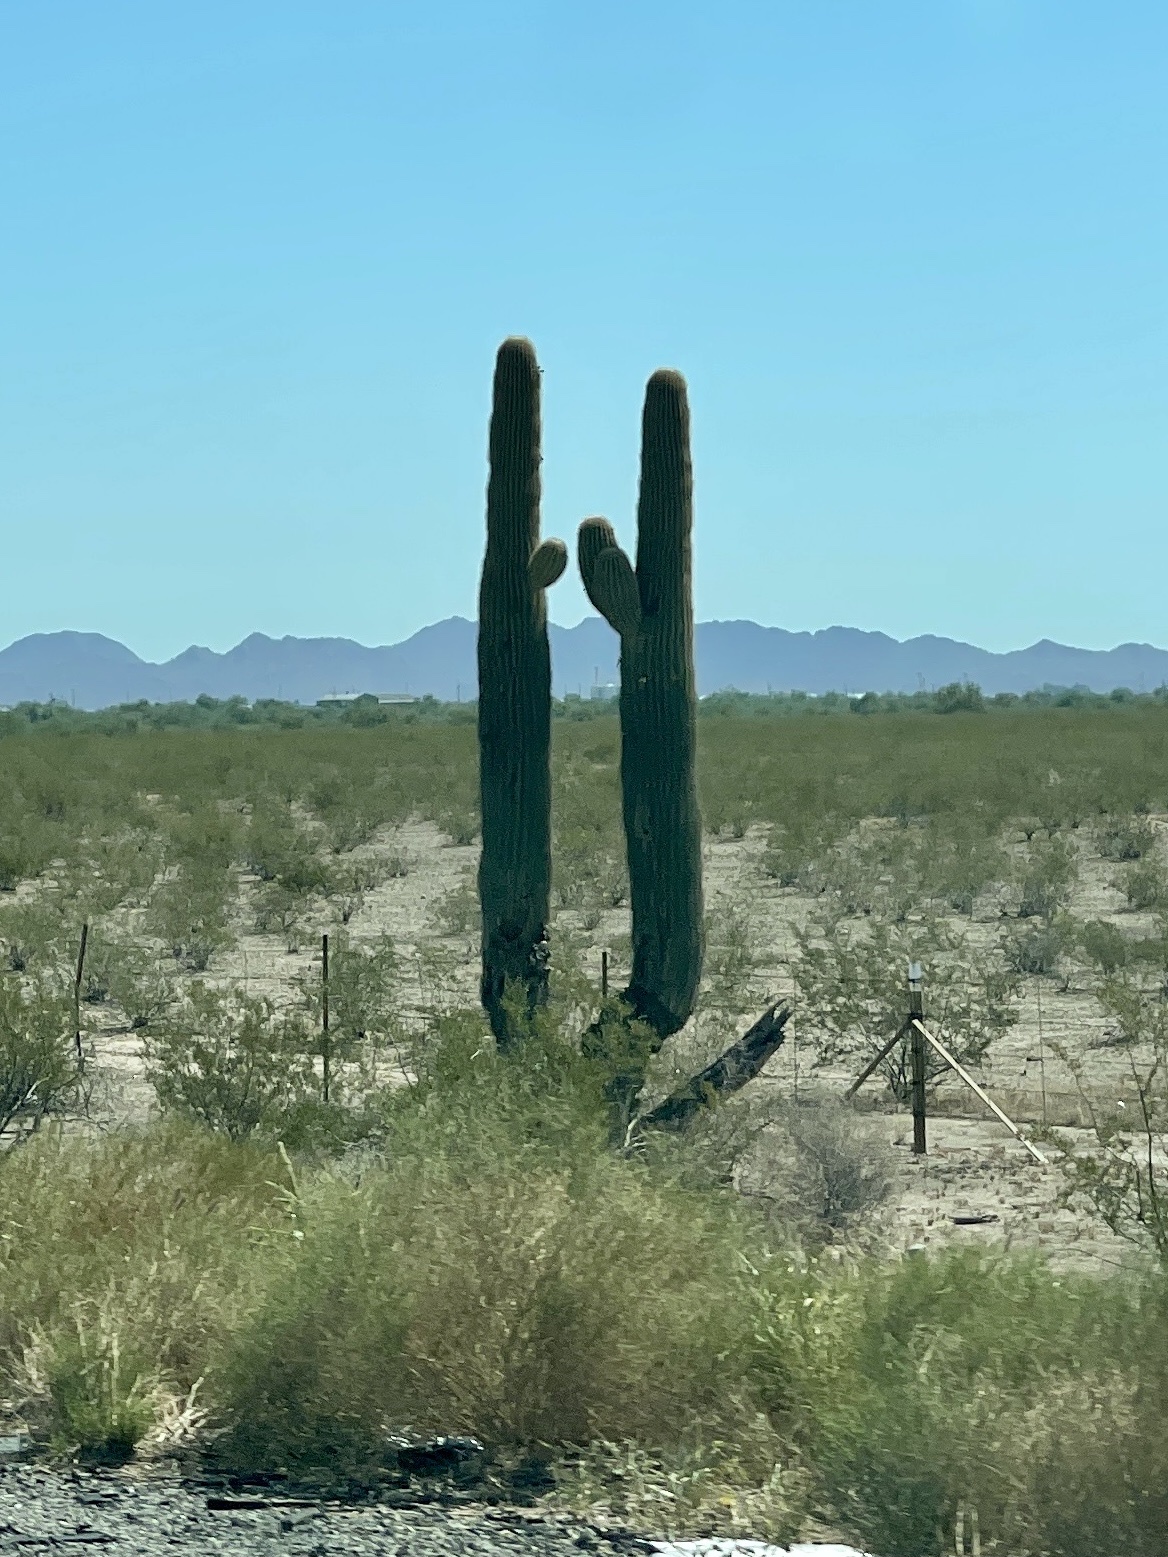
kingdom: Plantae
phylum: Tracheophyta
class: Magnoliopsida
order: Caryophyllales
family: Cactaceae
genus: Carnegiea
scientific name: Carnegiea gigantea
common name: Saguaro
